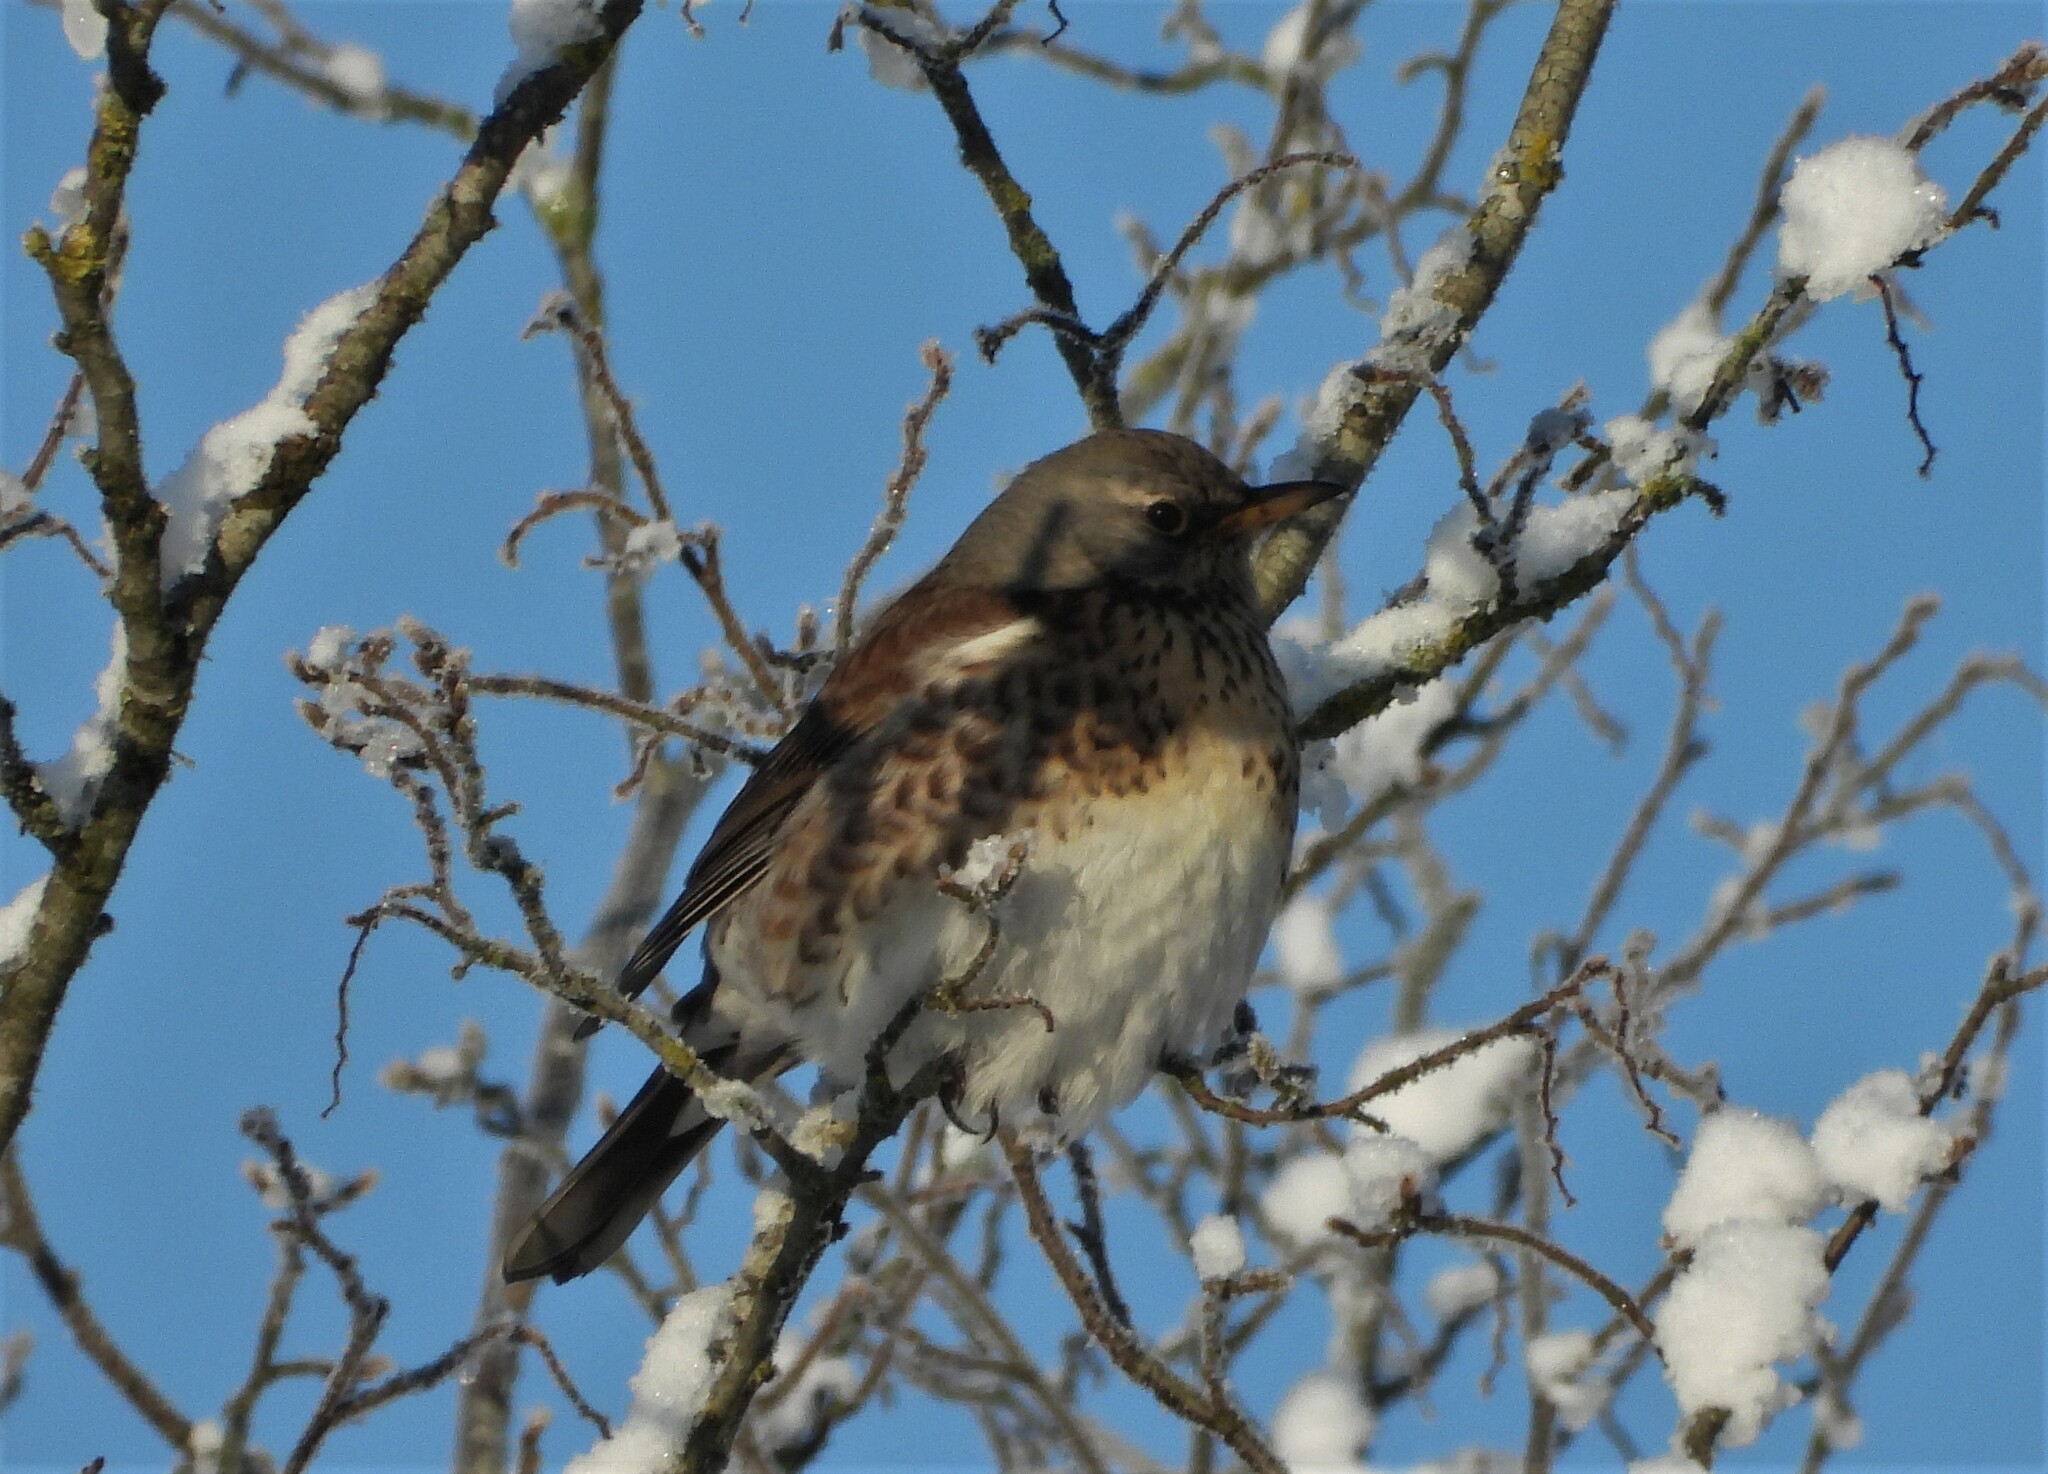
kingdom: Animalia
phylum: Chordata
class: Aves
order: Passeriformes
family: Turdidae
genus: Turdus
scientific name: Turdus pilaris
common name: Fieldfare
